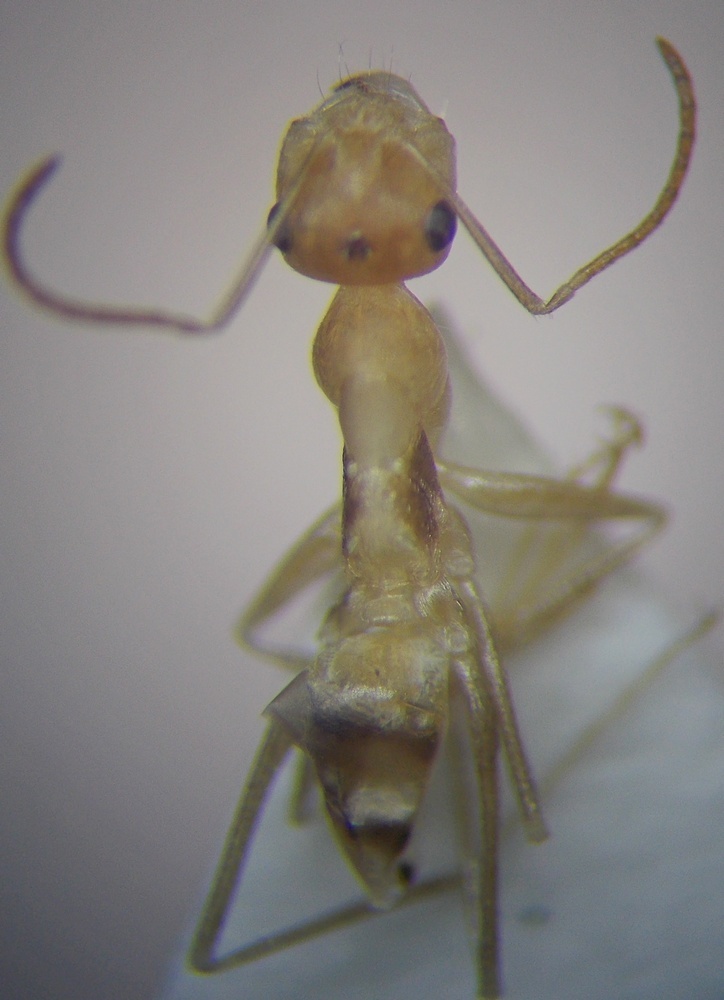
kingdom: Animalia
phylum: Arthropoda
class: Insecta
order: Hymenoptera
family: Formicidae
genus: Cataglyphis
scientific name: Cataglyphis pallidus
